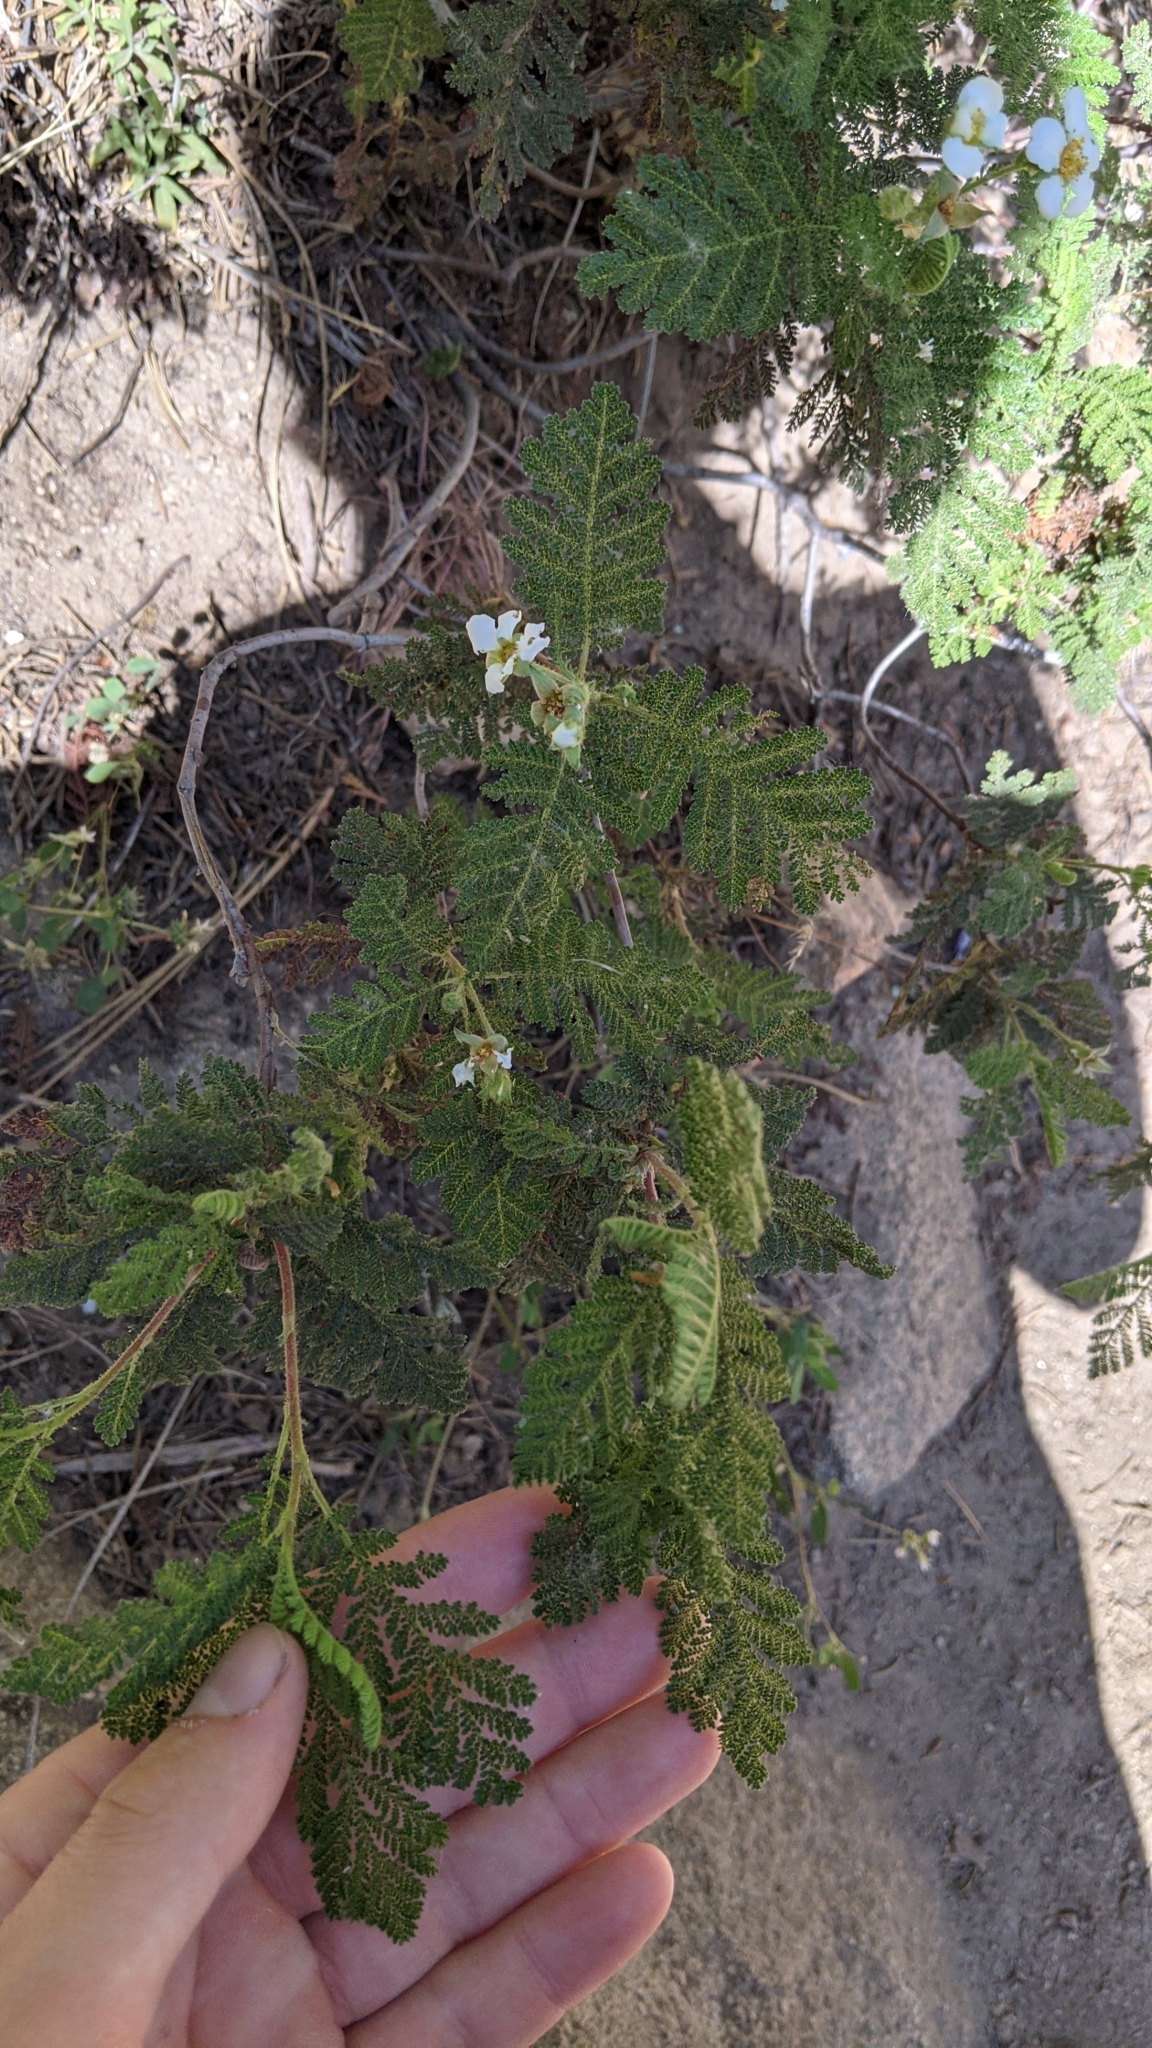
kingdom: Plantae
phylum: Tracheophyta
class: Magnoliopsida
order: Rosales
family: Rosaceae
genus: Chamaebatia
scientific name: Chamaebatia foliolosa
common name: Mountain misery
